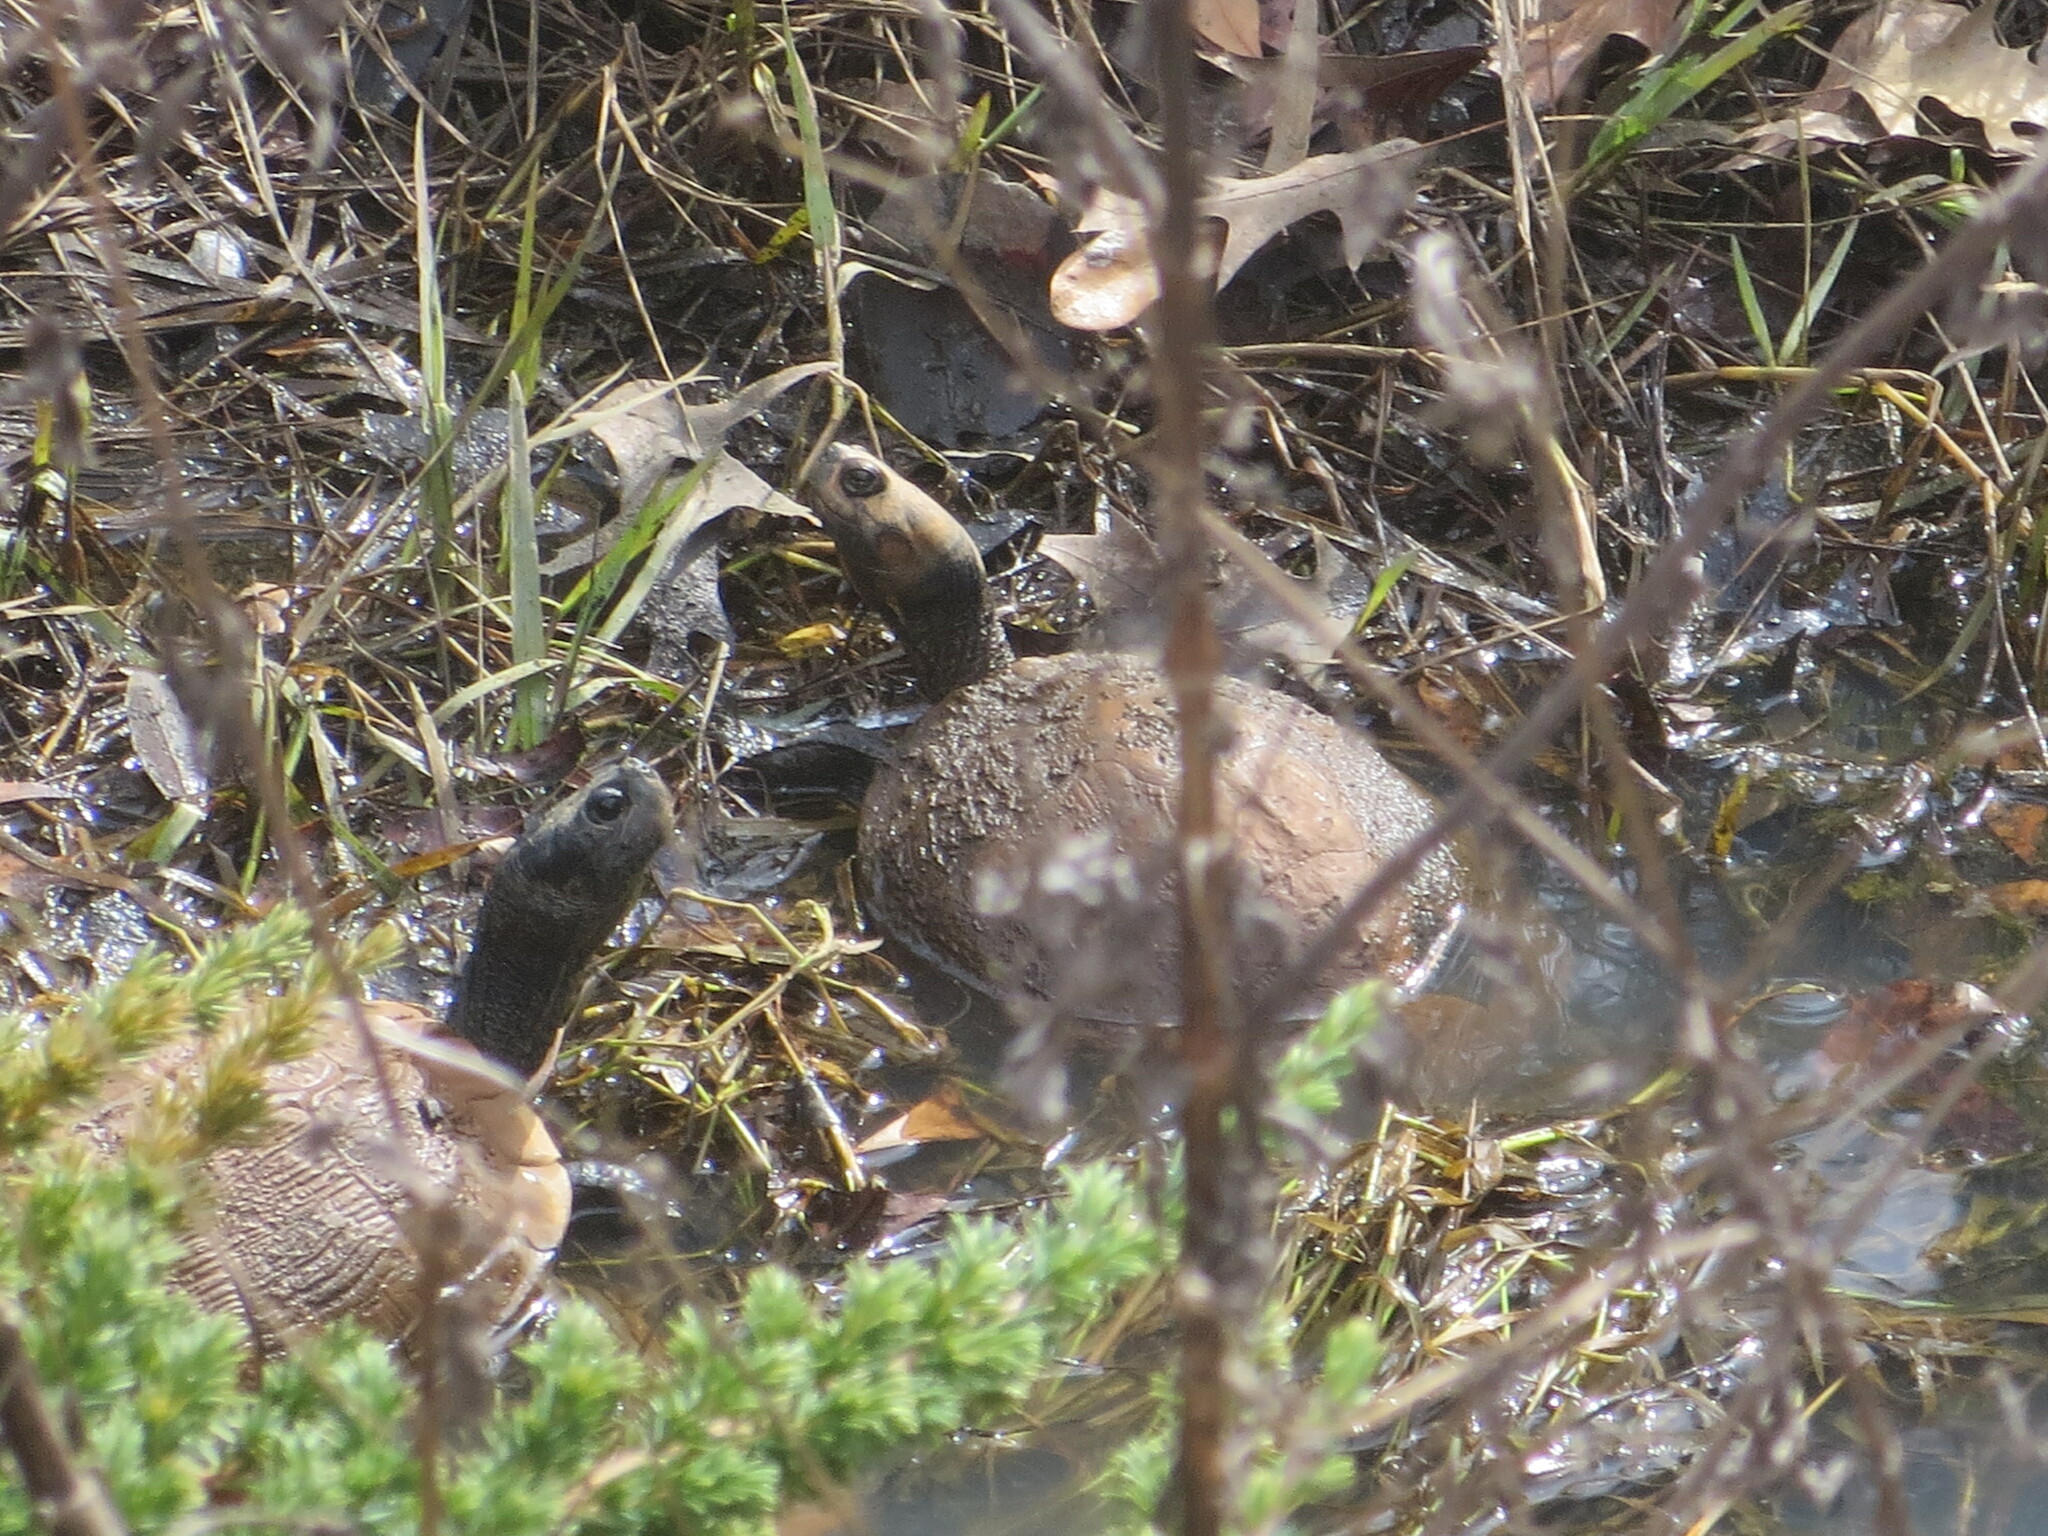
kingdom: Animalia
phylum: Chordata
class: Testudines
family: Emydidae
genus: Trachemys
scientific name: Trachemys scripta
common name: Slider
